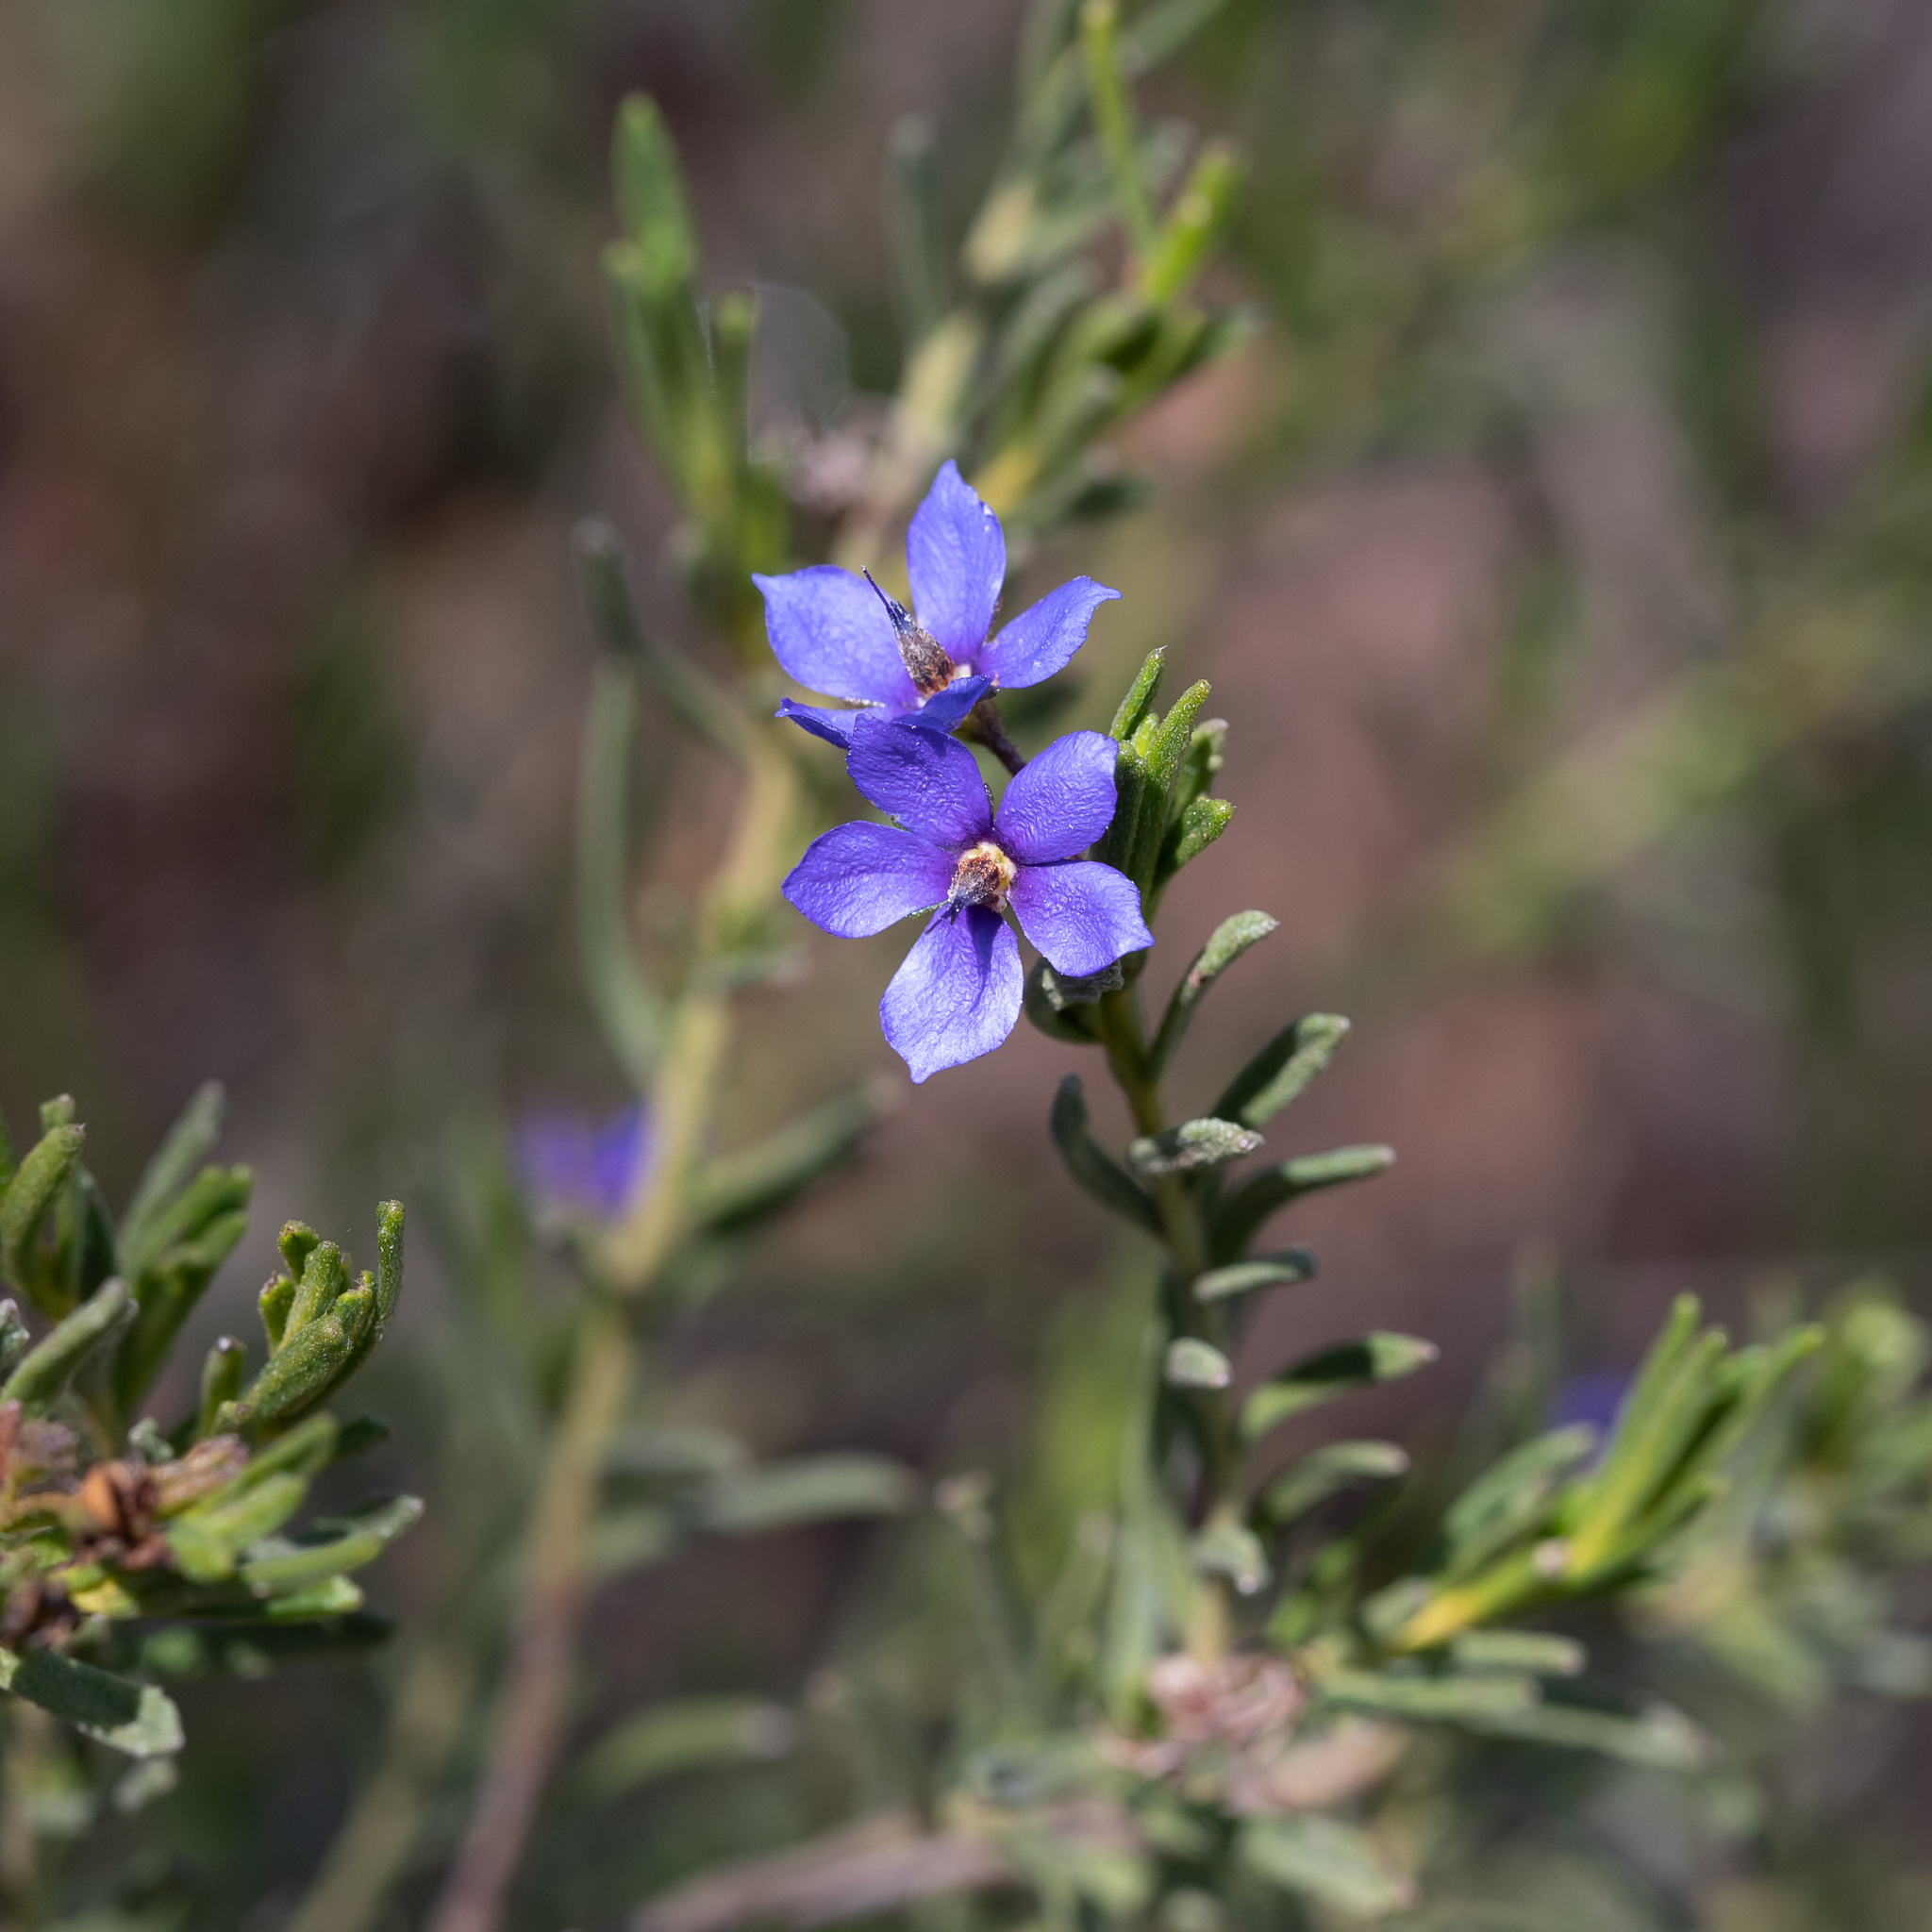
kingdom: Plantae
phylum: Tracheophyta
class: Magnoliopsida
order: Boraginales
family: Ehretiaceae
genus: Halgania
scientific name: Halgania cyanea
